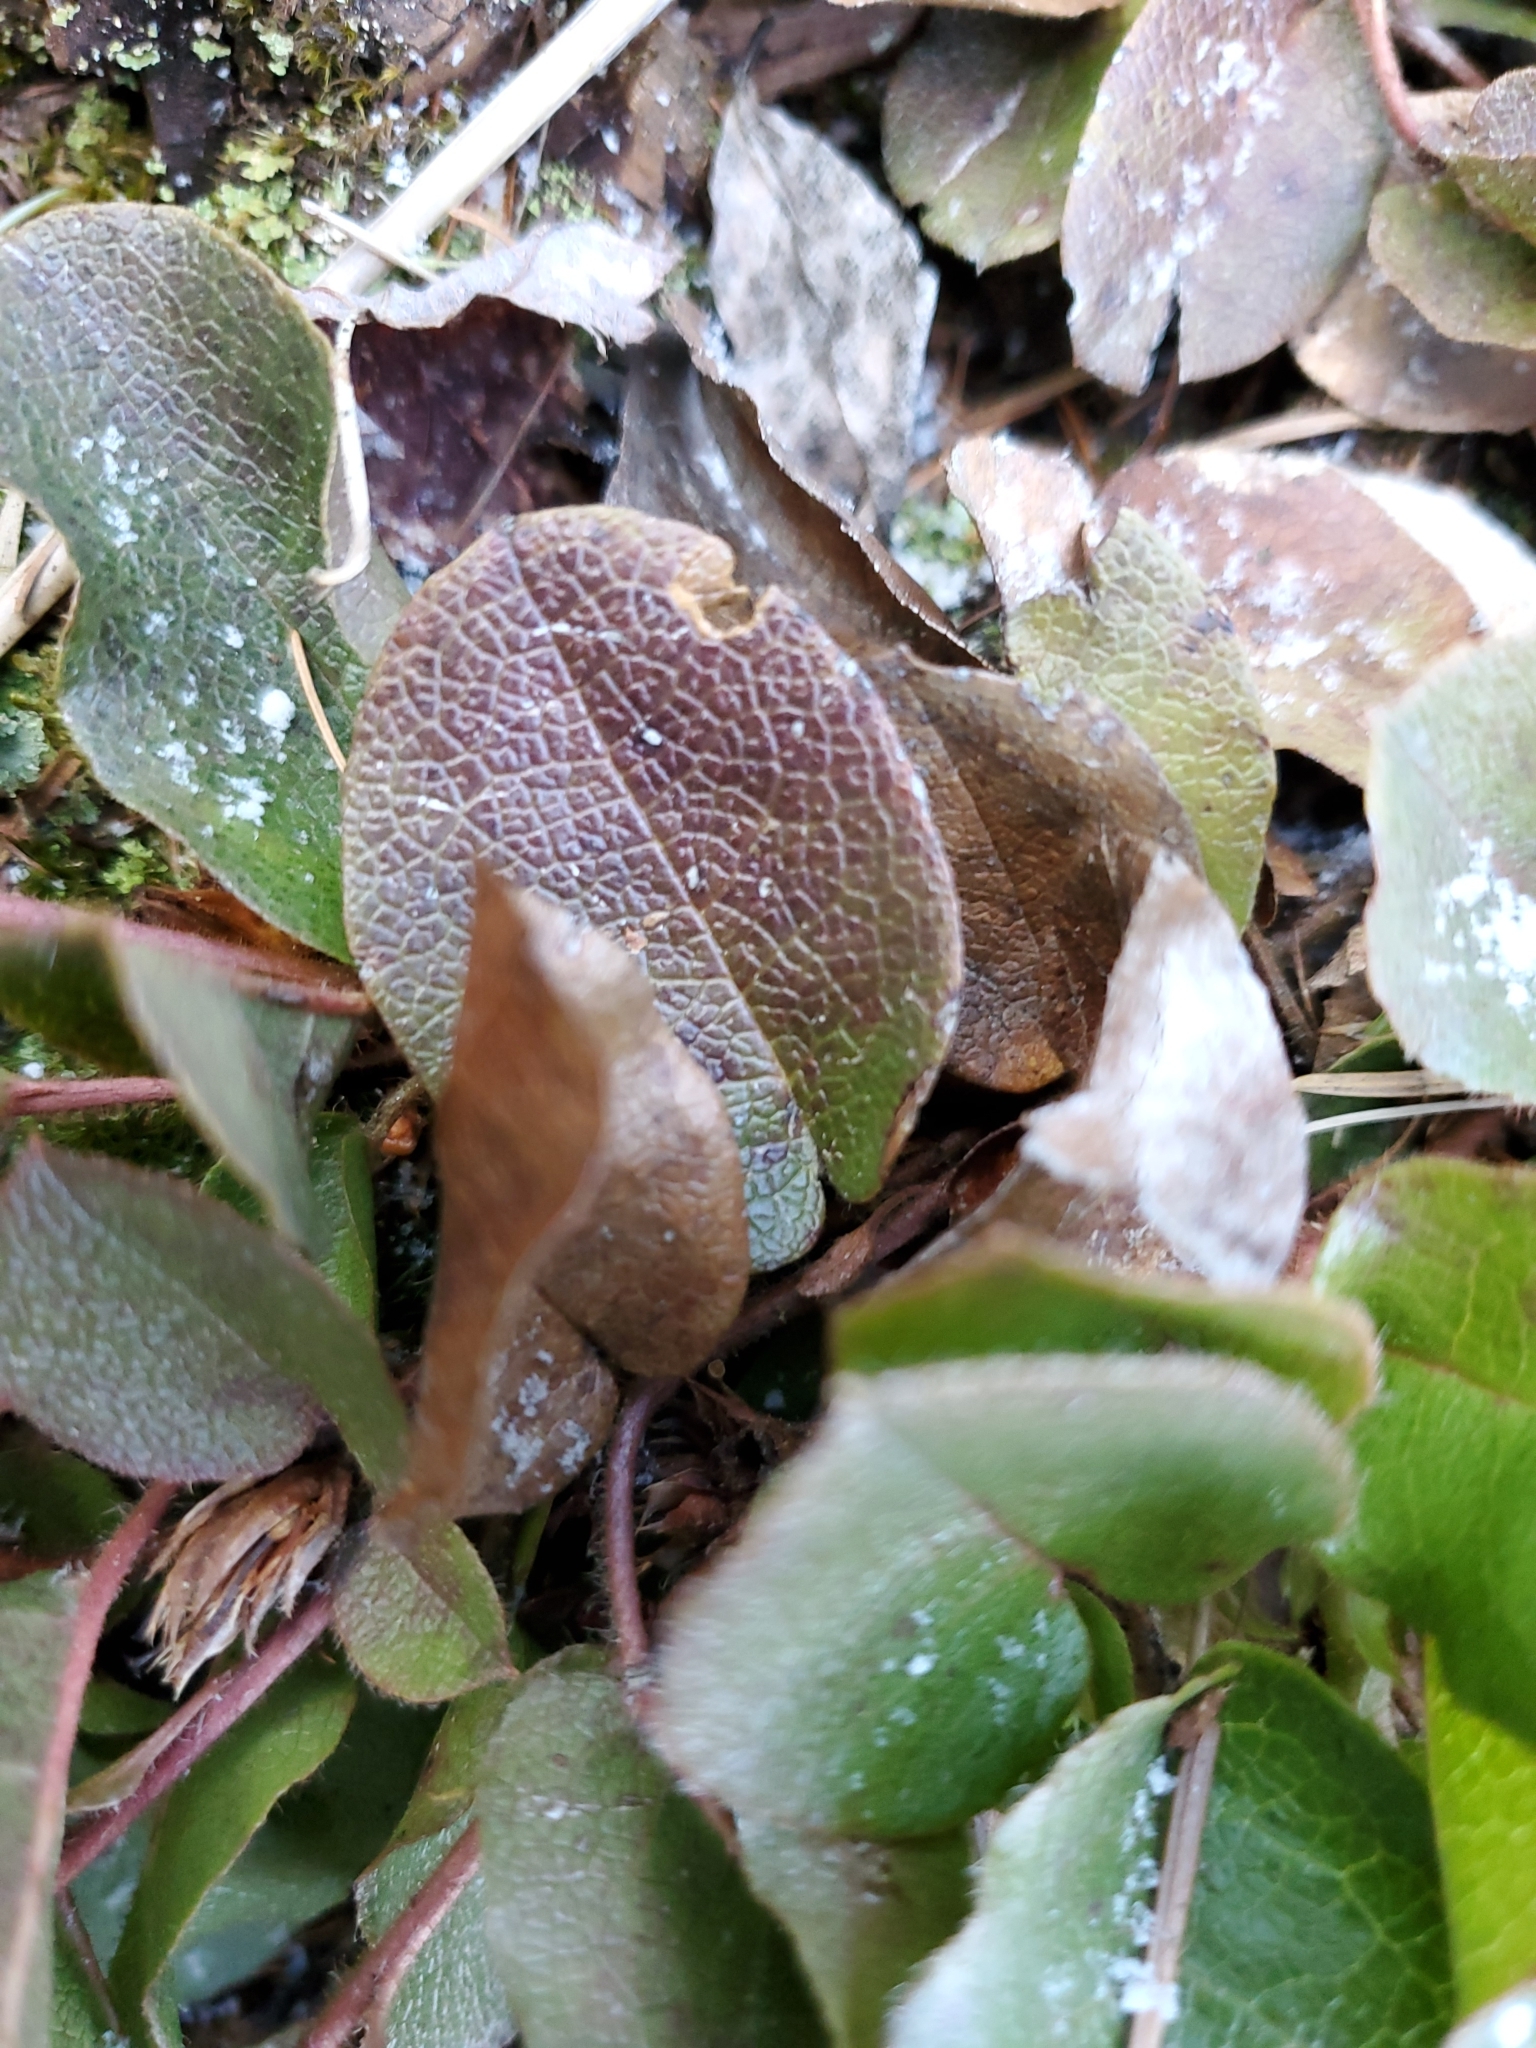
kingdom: Plantae
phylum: Tracheophyta
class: Magnoliopsida
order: Ericales
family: Ericaceae
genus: Epigaea
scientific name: Epigaea repens
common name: Gravelroot
